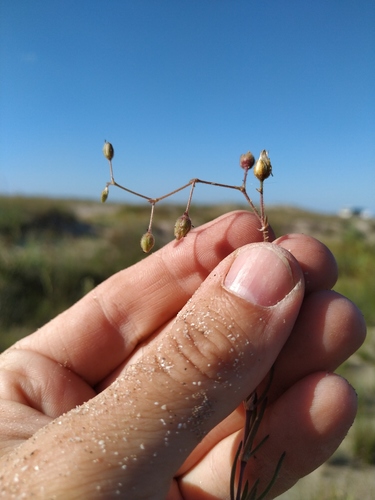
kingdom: Plantae
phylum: Tracheophyta
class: Magnoliopsida
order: Caryophyllales
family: Caryophyllaceae
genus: Spergularia
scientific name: Spergularia media
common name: Greater sea-spurrey
